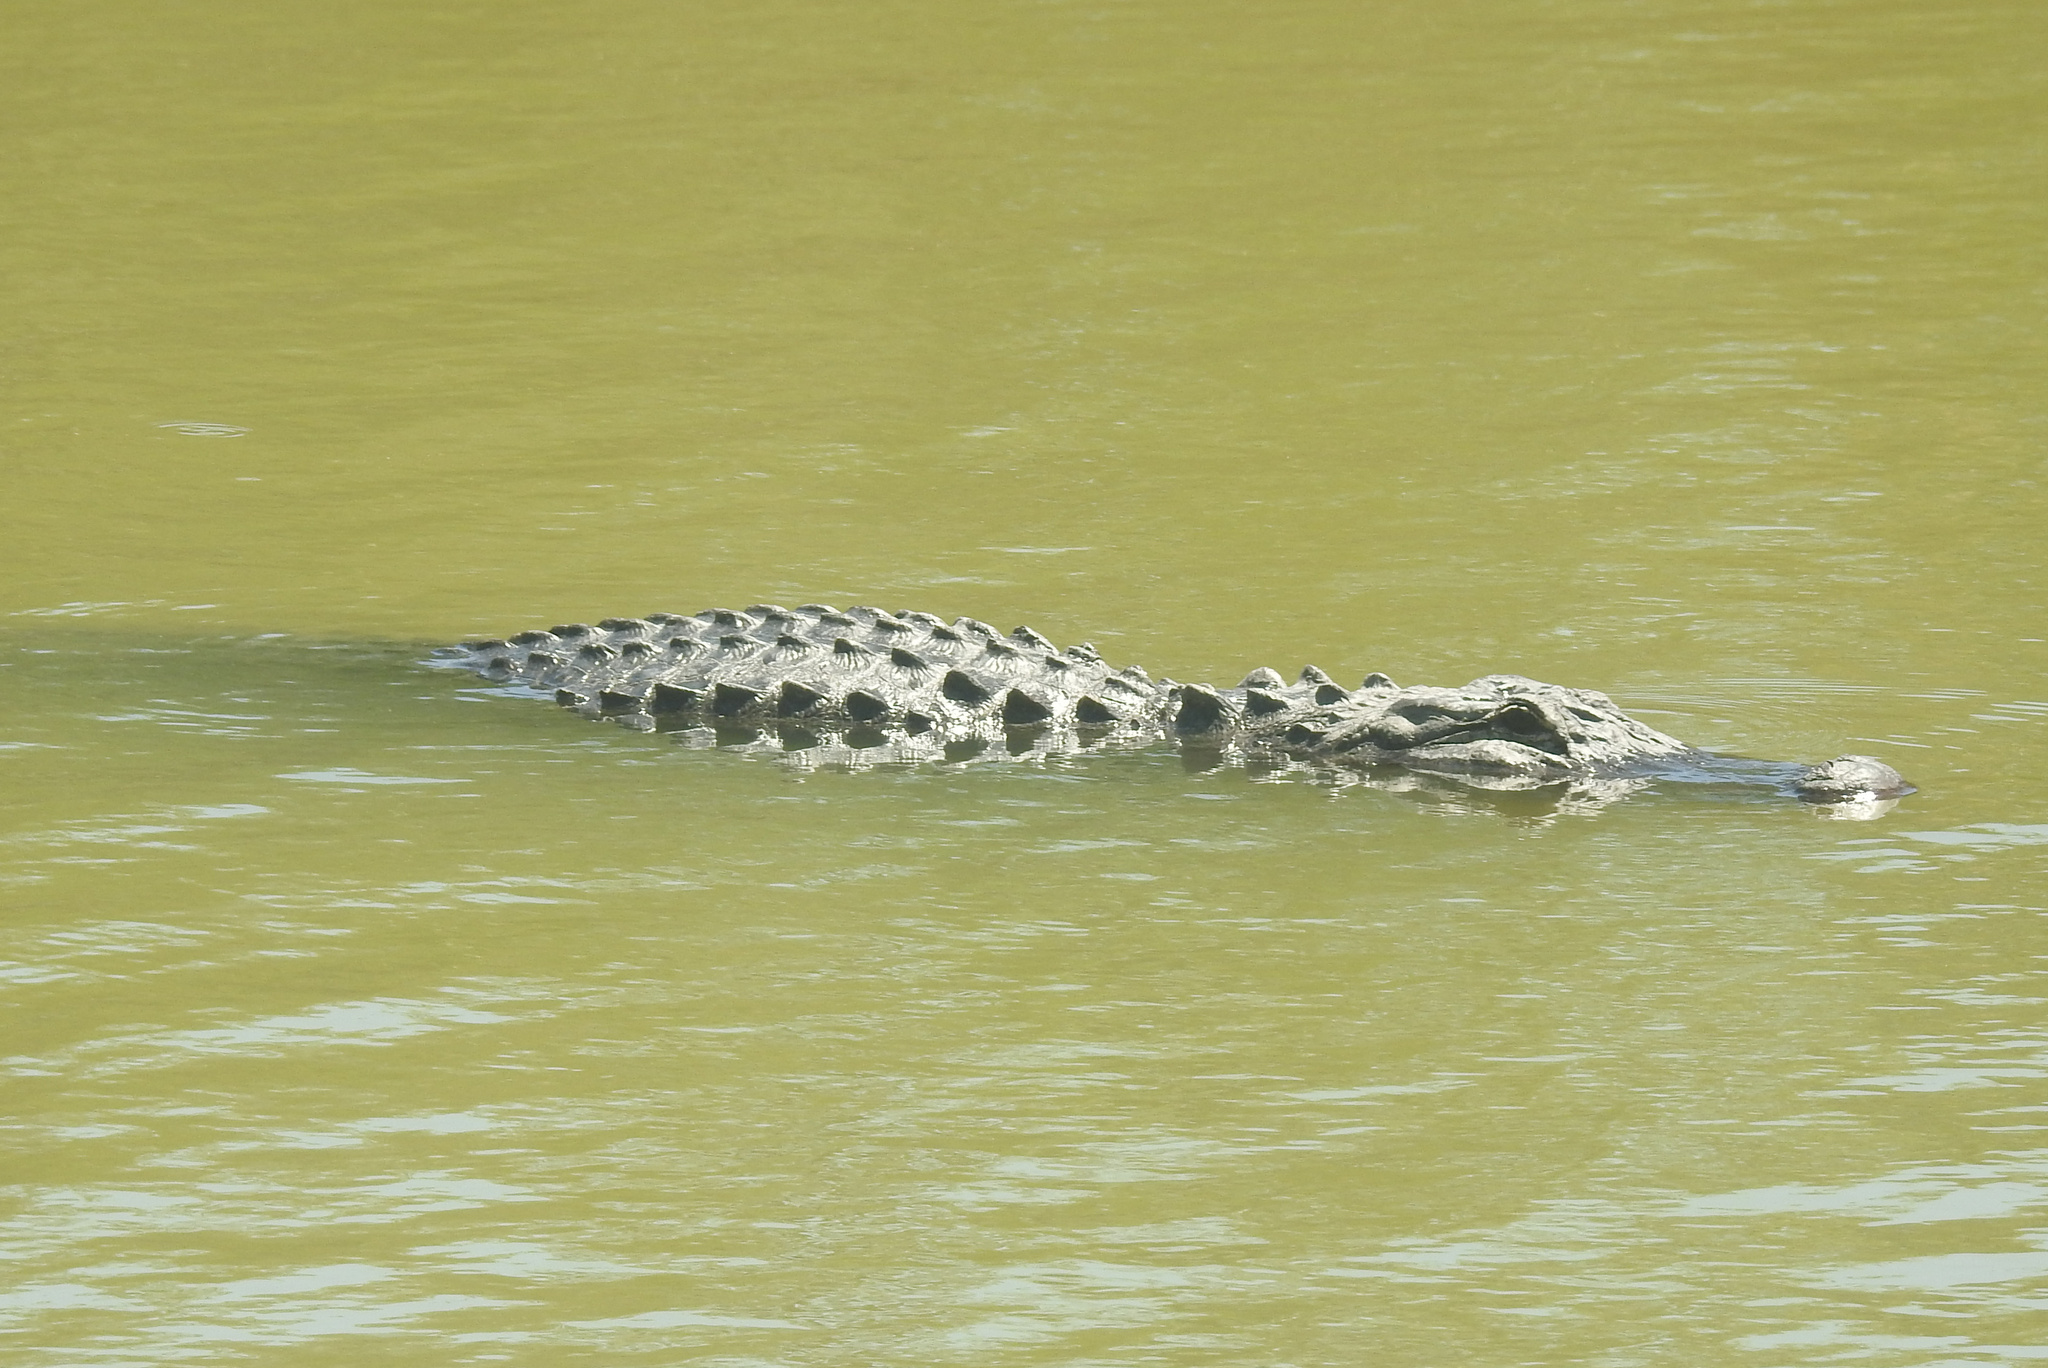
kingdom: Animalia
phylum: Chordata
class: Crocodylia
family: Alligatoridae
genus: Alligator
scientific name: Alligator mississippiensis
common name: American alligator
